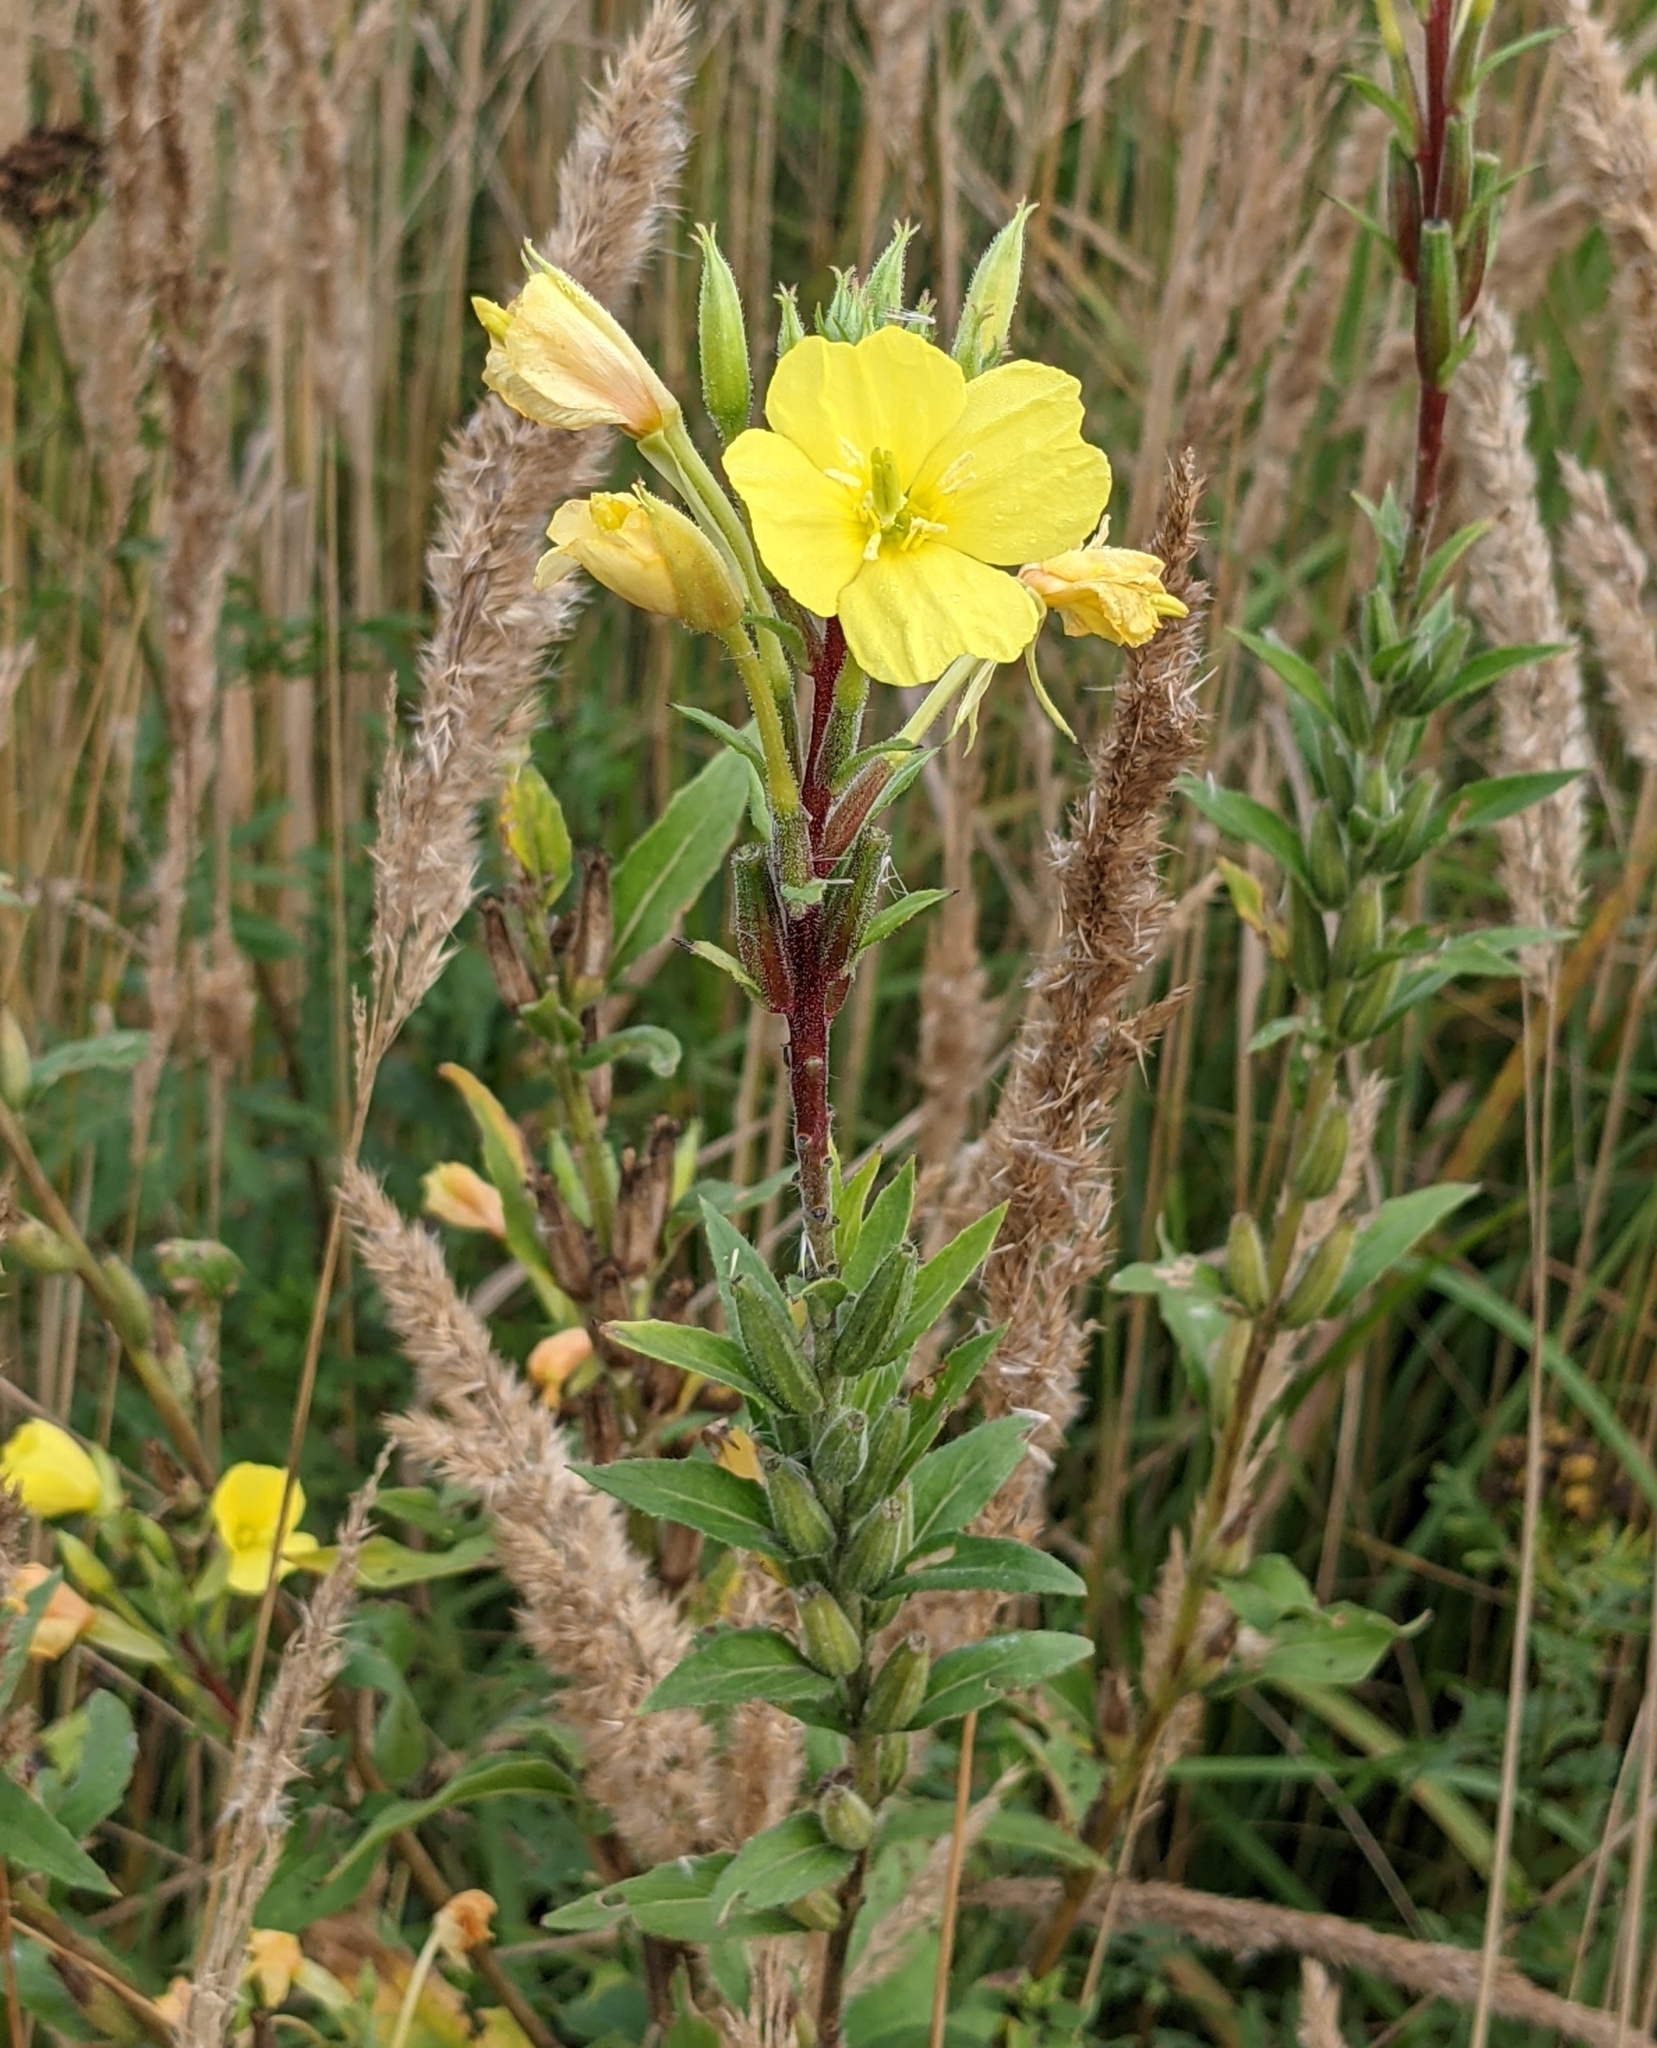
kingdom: Plantae
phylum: Tracheophyta
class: Magnoliopsida
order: Myrtales
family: Onagraceae
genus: Oenothera
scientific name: Oenothera rubricaulis
